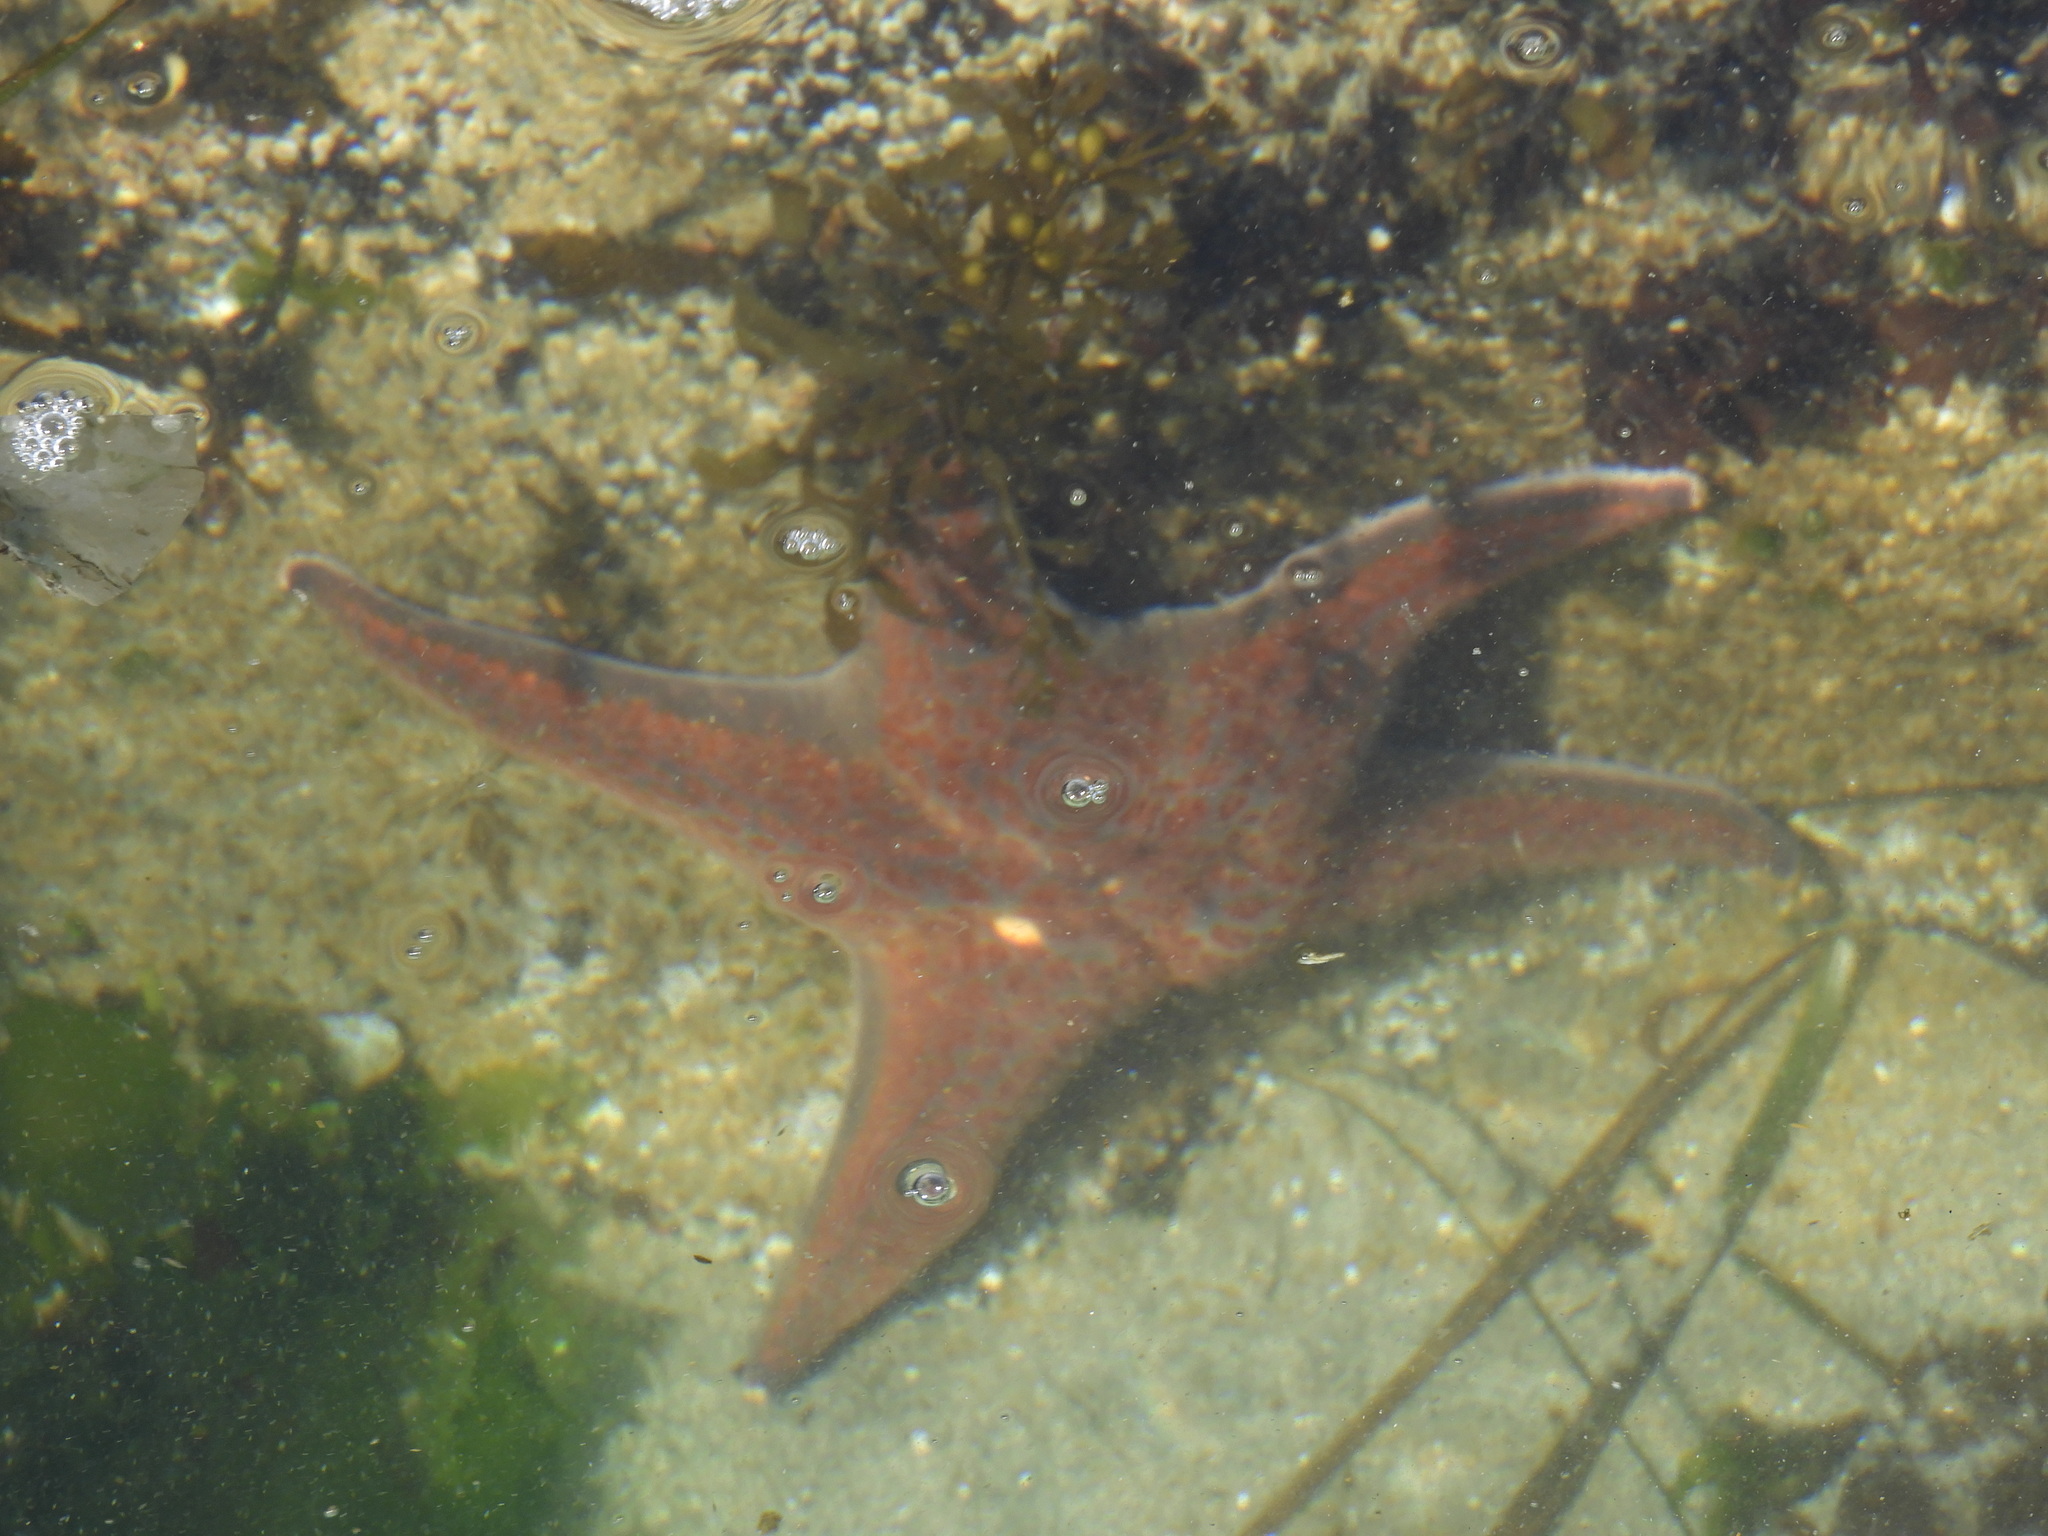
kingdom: Animalia
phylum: Echinodermata
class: Asteroidea
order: Valvatida
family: Asteropseidae
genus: Dermasterias
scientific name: Dermasterias imbricata
